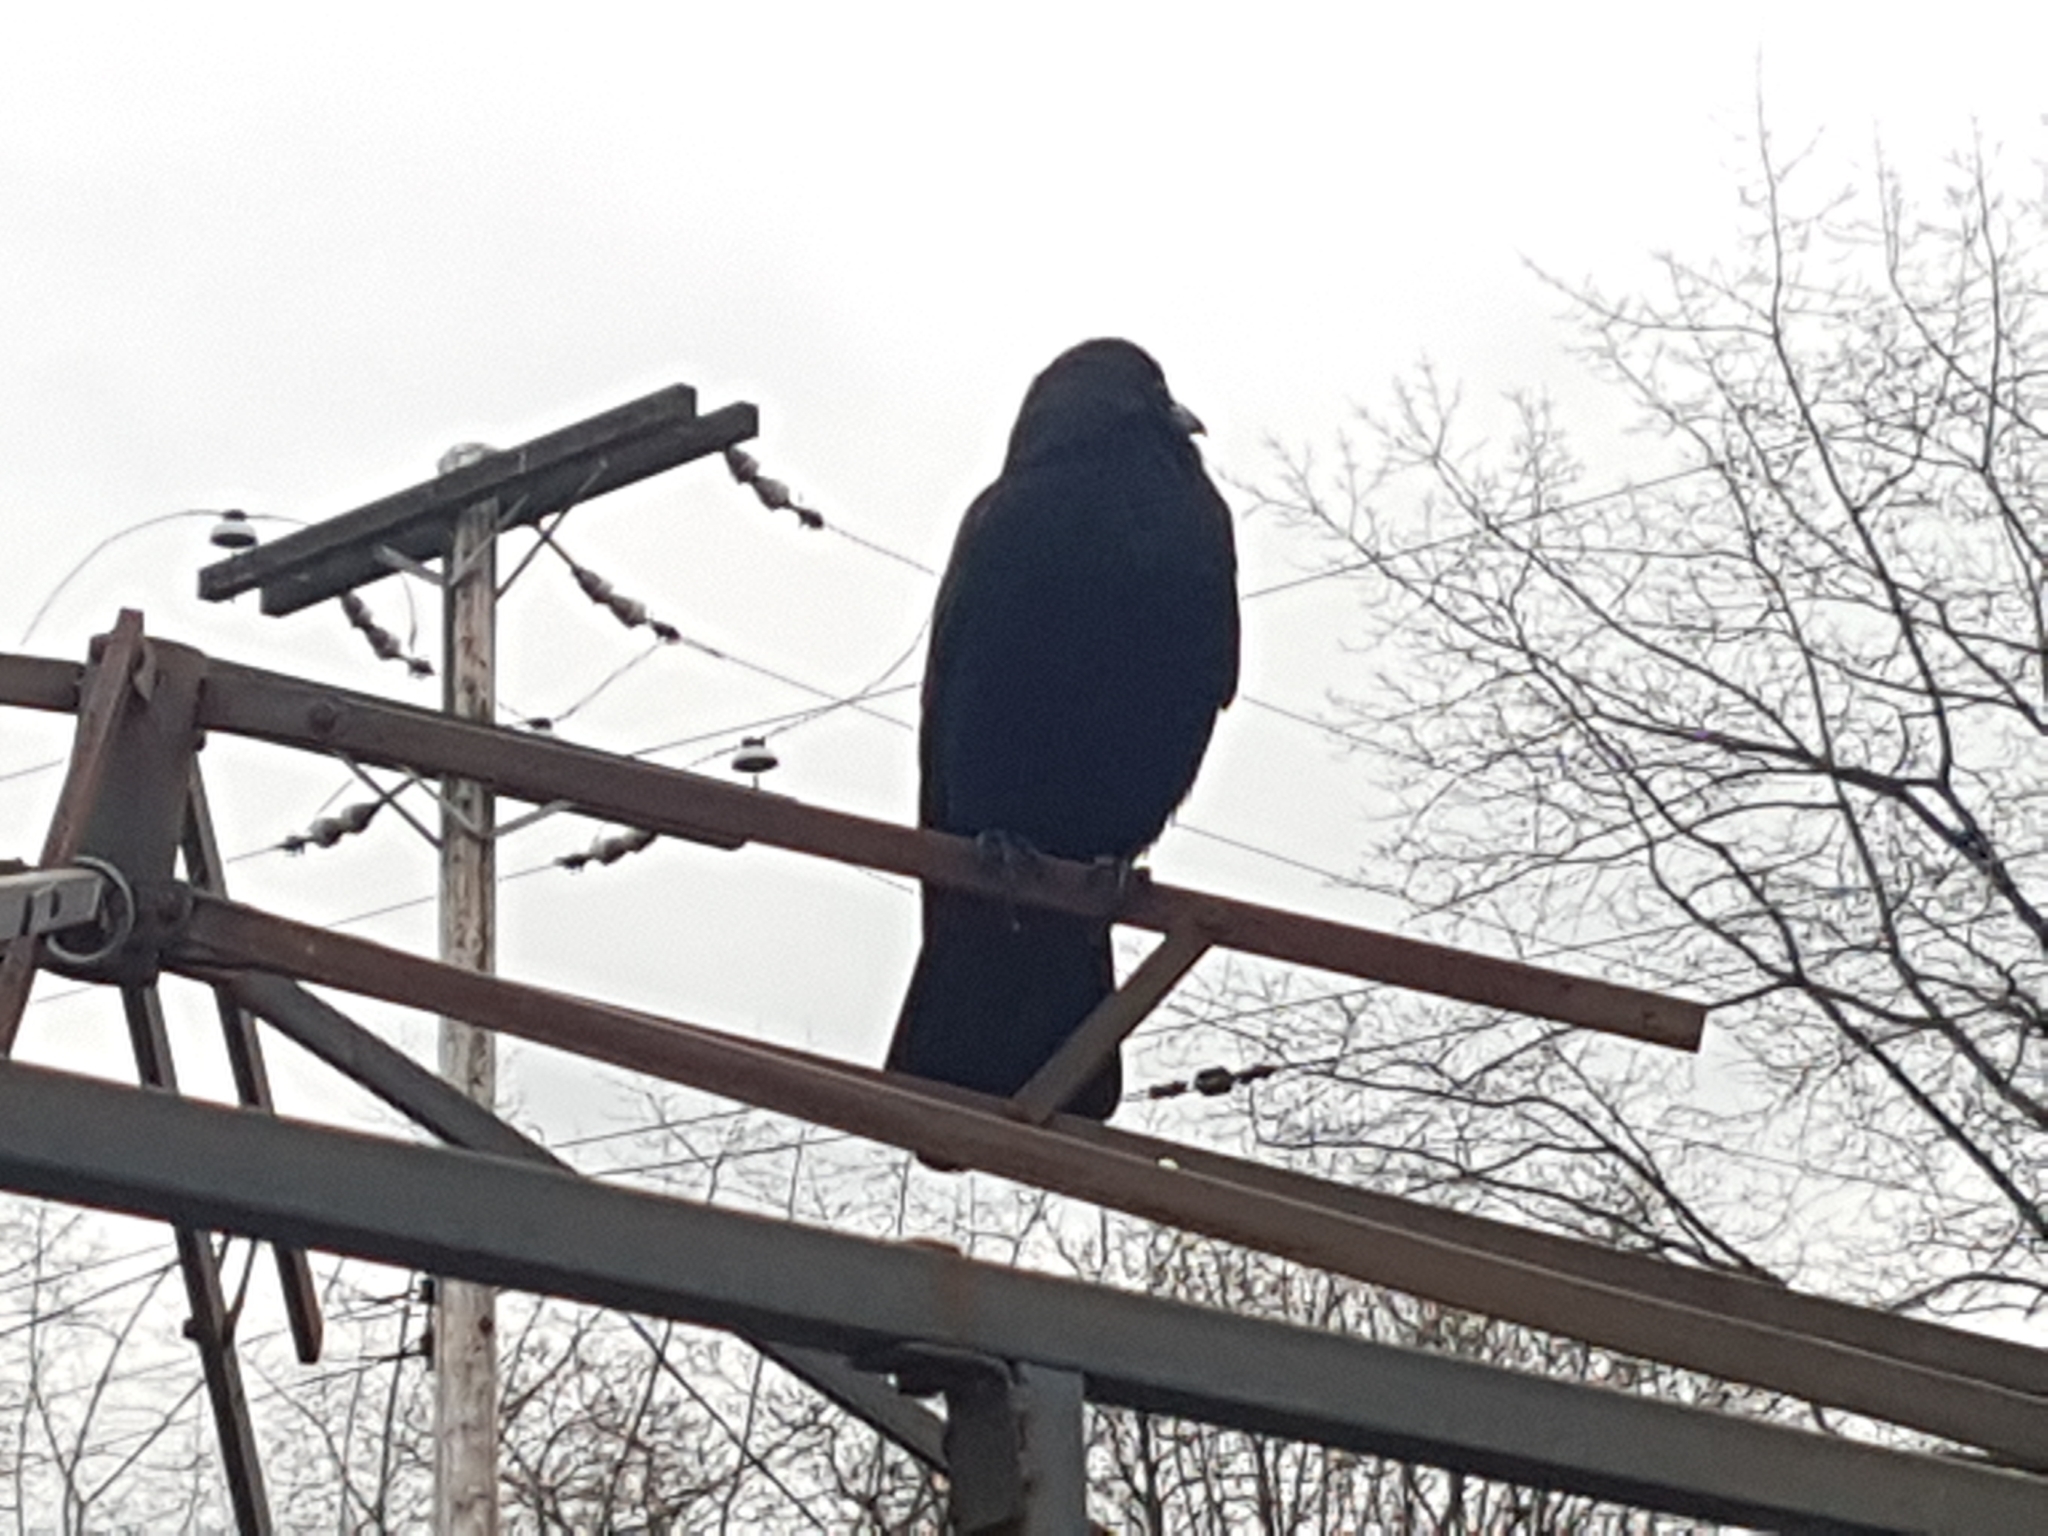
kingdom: Animalia
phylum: Chordata
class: Aves
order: Passeriformes
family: Corvidae
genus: Corvus
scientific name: Corvus brachyrhynchos
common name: American crow
